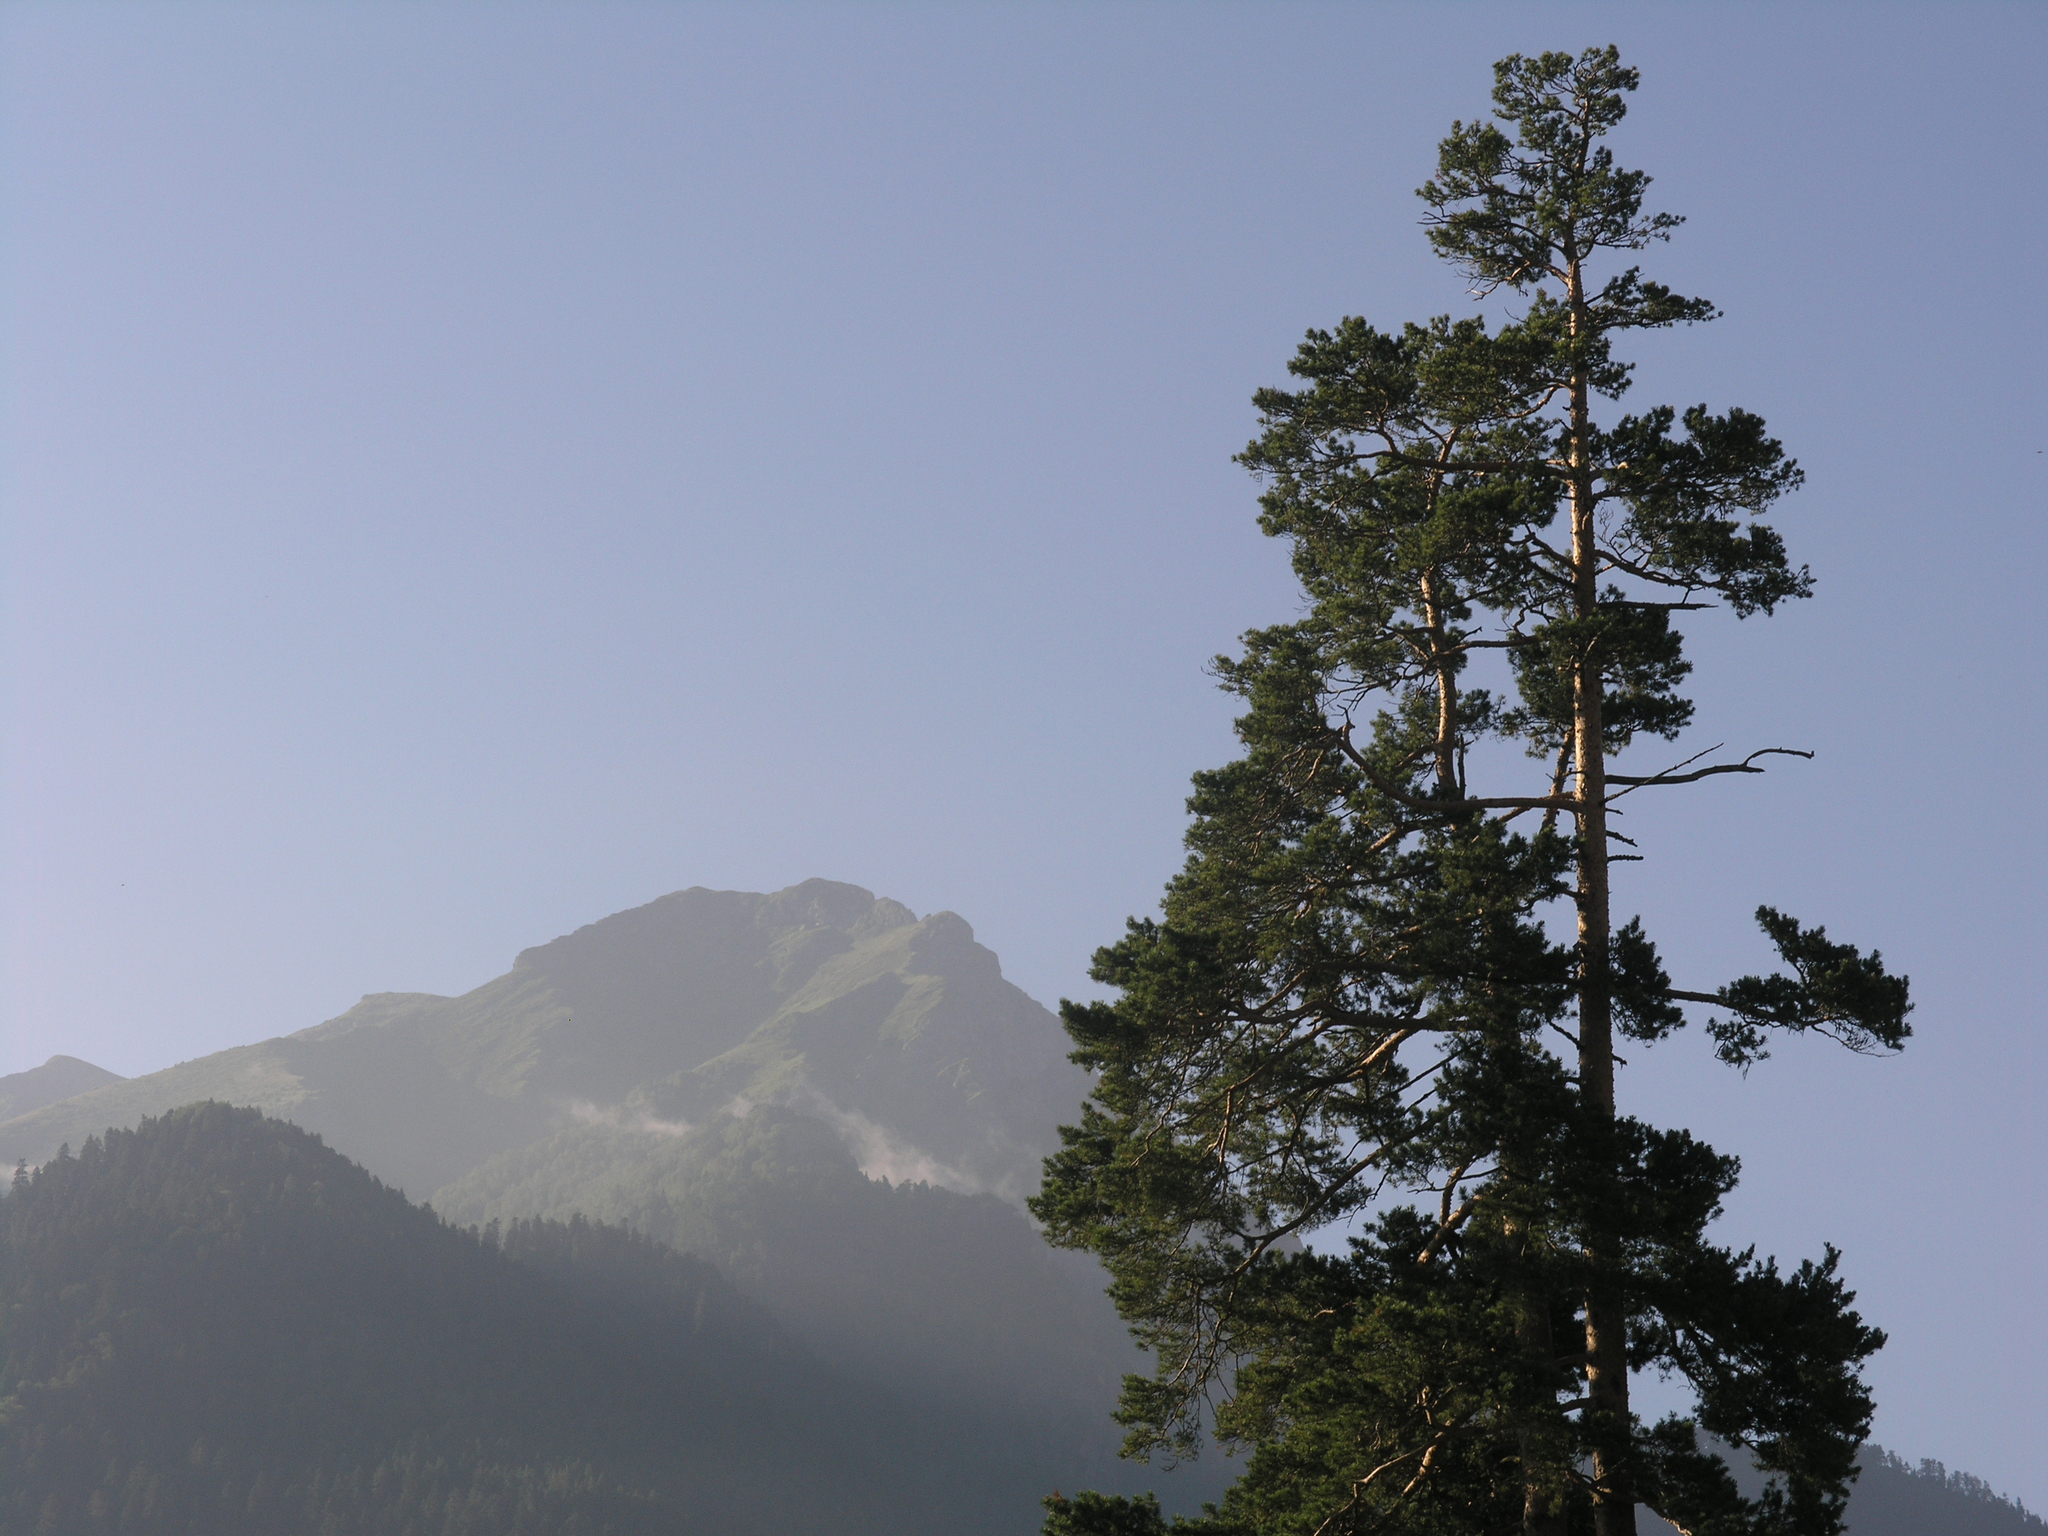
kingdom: Plantae
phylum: Tracheophyta
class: Pinopsida
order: Pinales
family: Pinaceae
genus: Pinus
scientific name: Pinus sylvestris
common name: Scots pine
